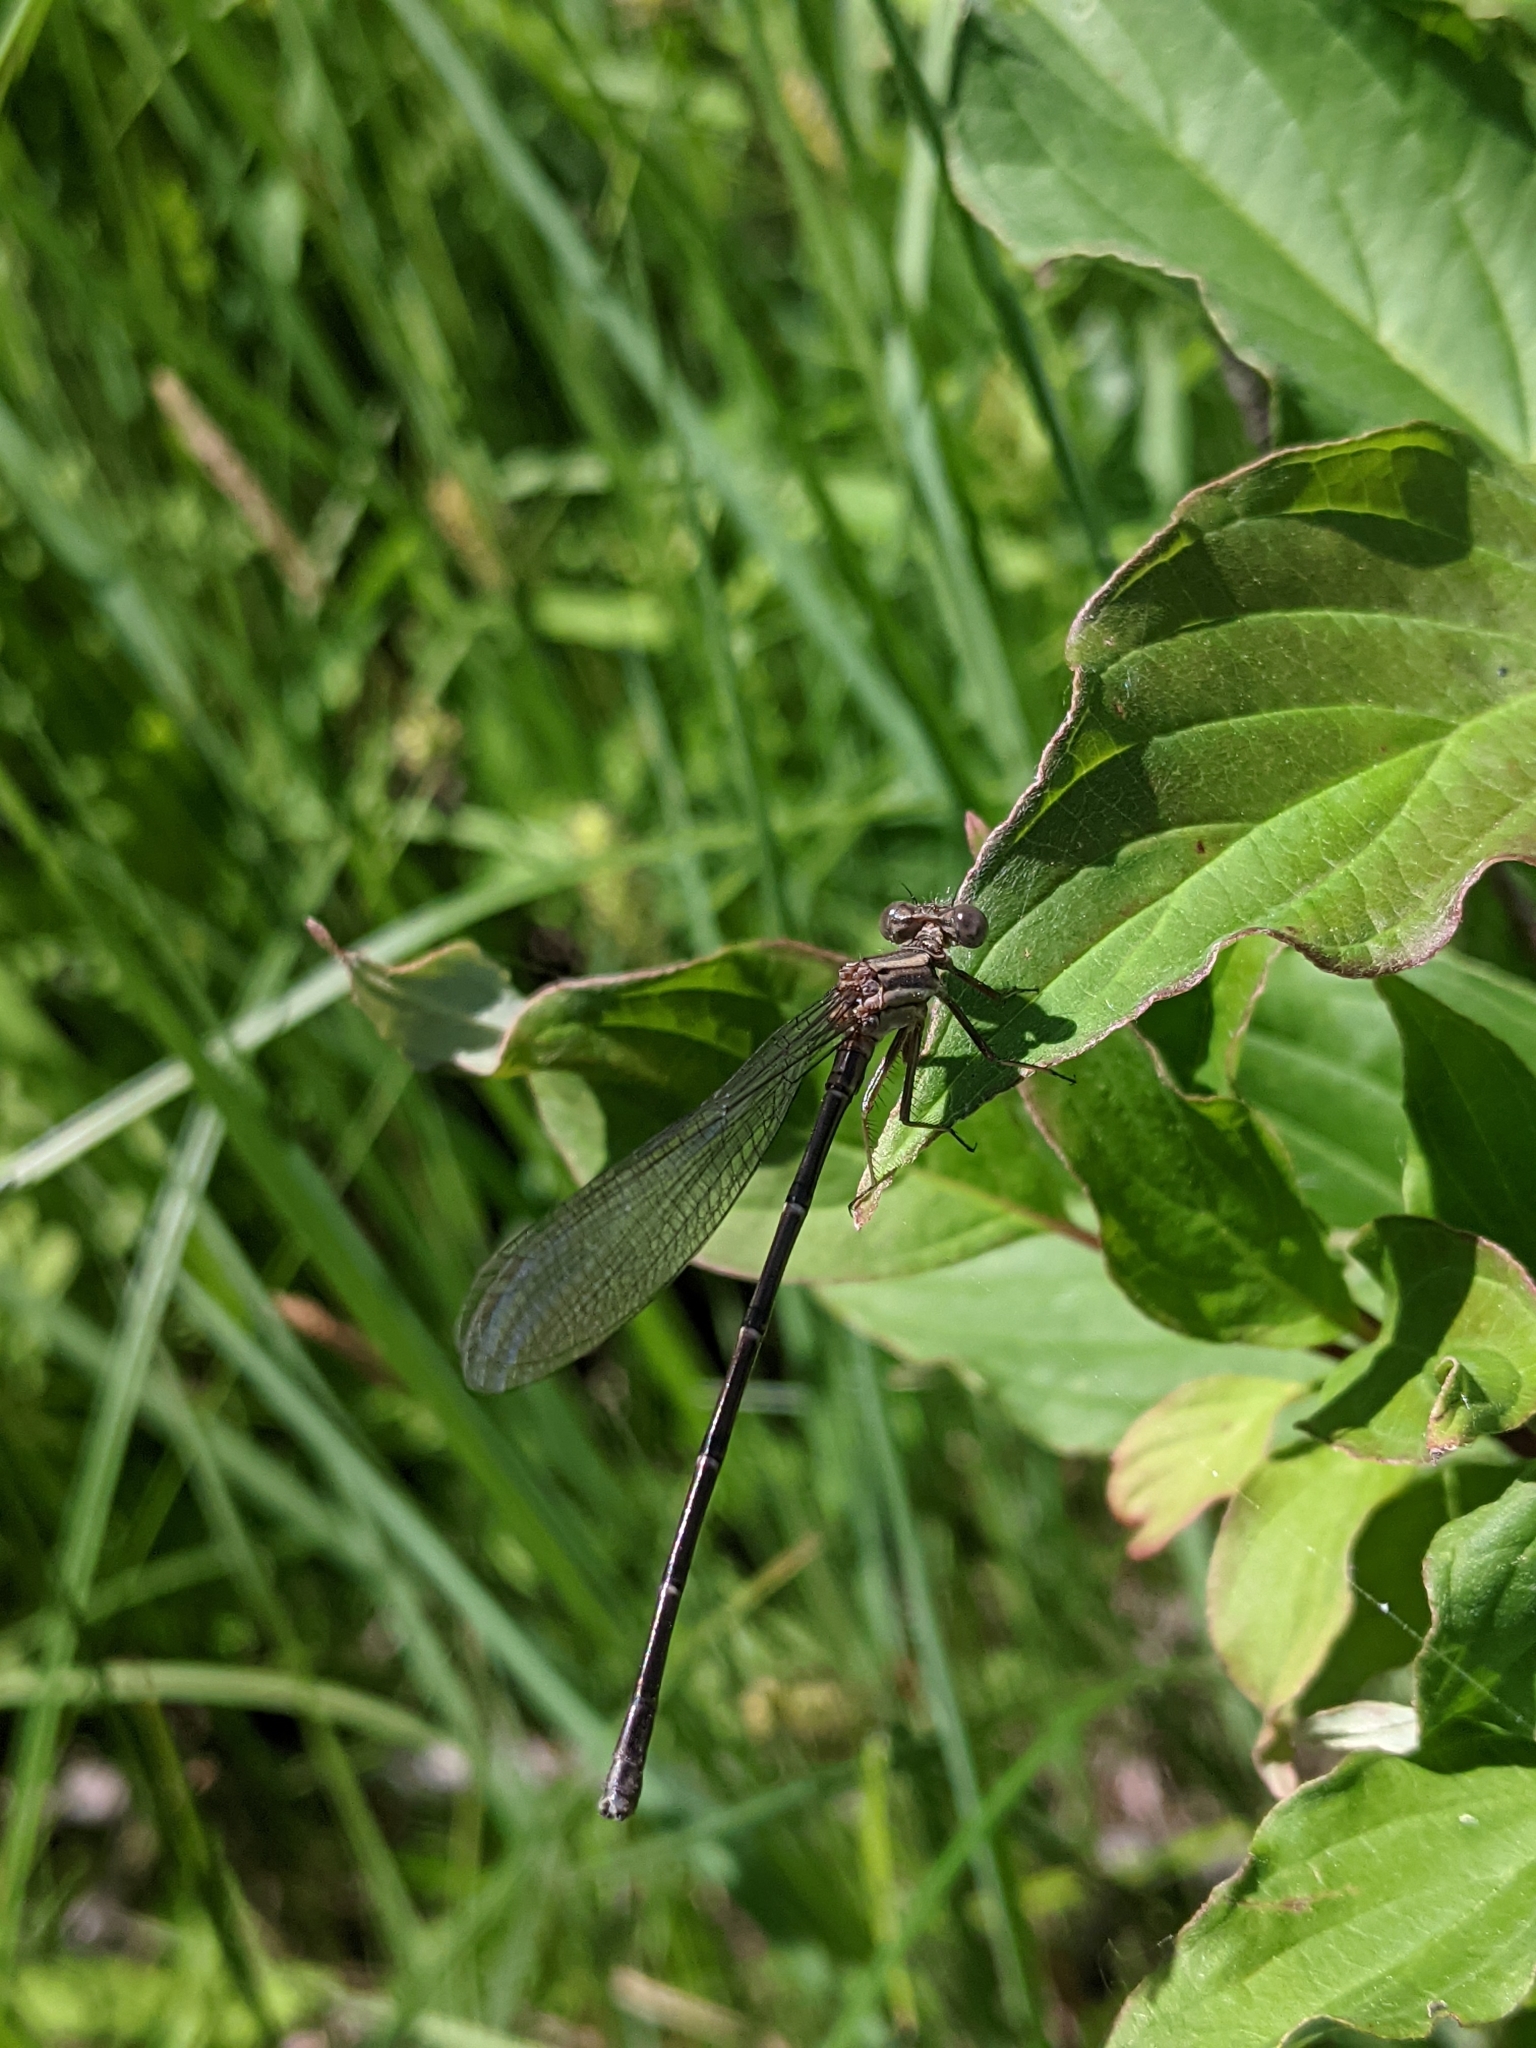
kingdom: Animalia
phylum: Arthropoda
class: Insecta
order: Odonata
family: Coenagrionidae
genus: Argia
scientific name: Argia moesta
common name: Powdered dancer
